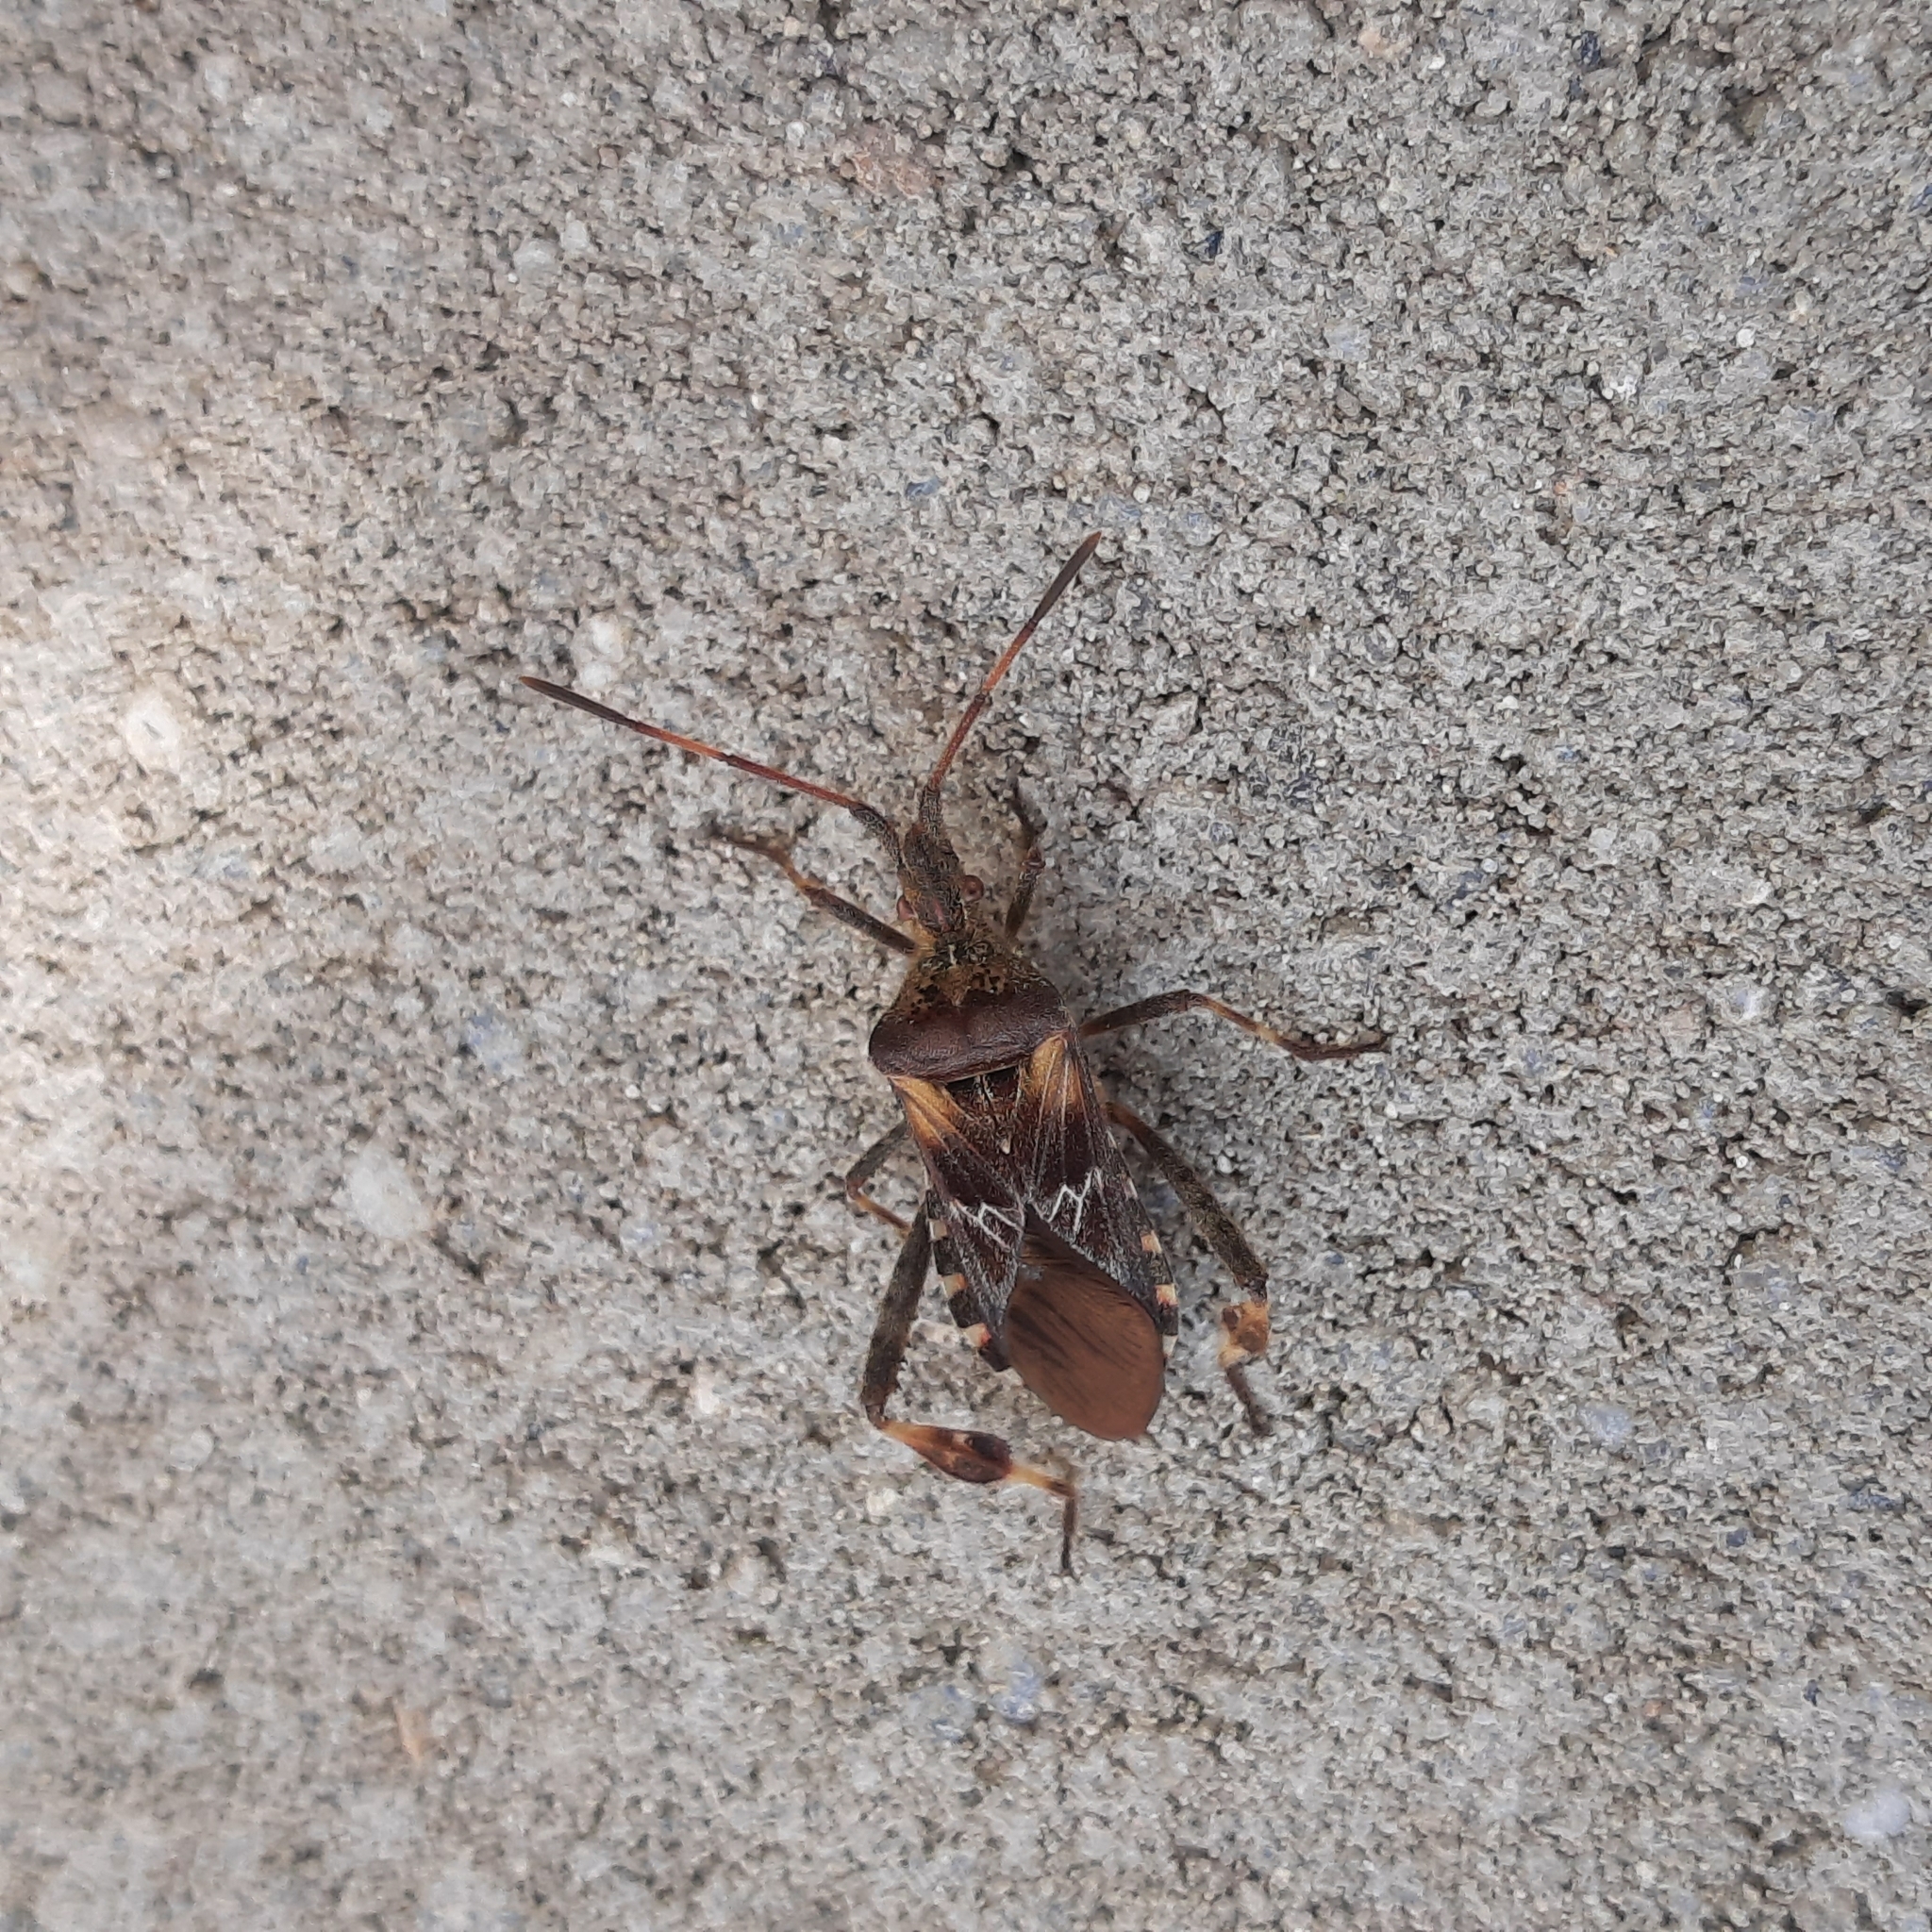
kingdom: Animalia
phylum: Arthropoda
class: Insecta
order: Hemiptera
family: Coreidae
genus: Leptoglossus
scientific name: Leptoglossus occidentalis
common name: Western conifer-seed bug
